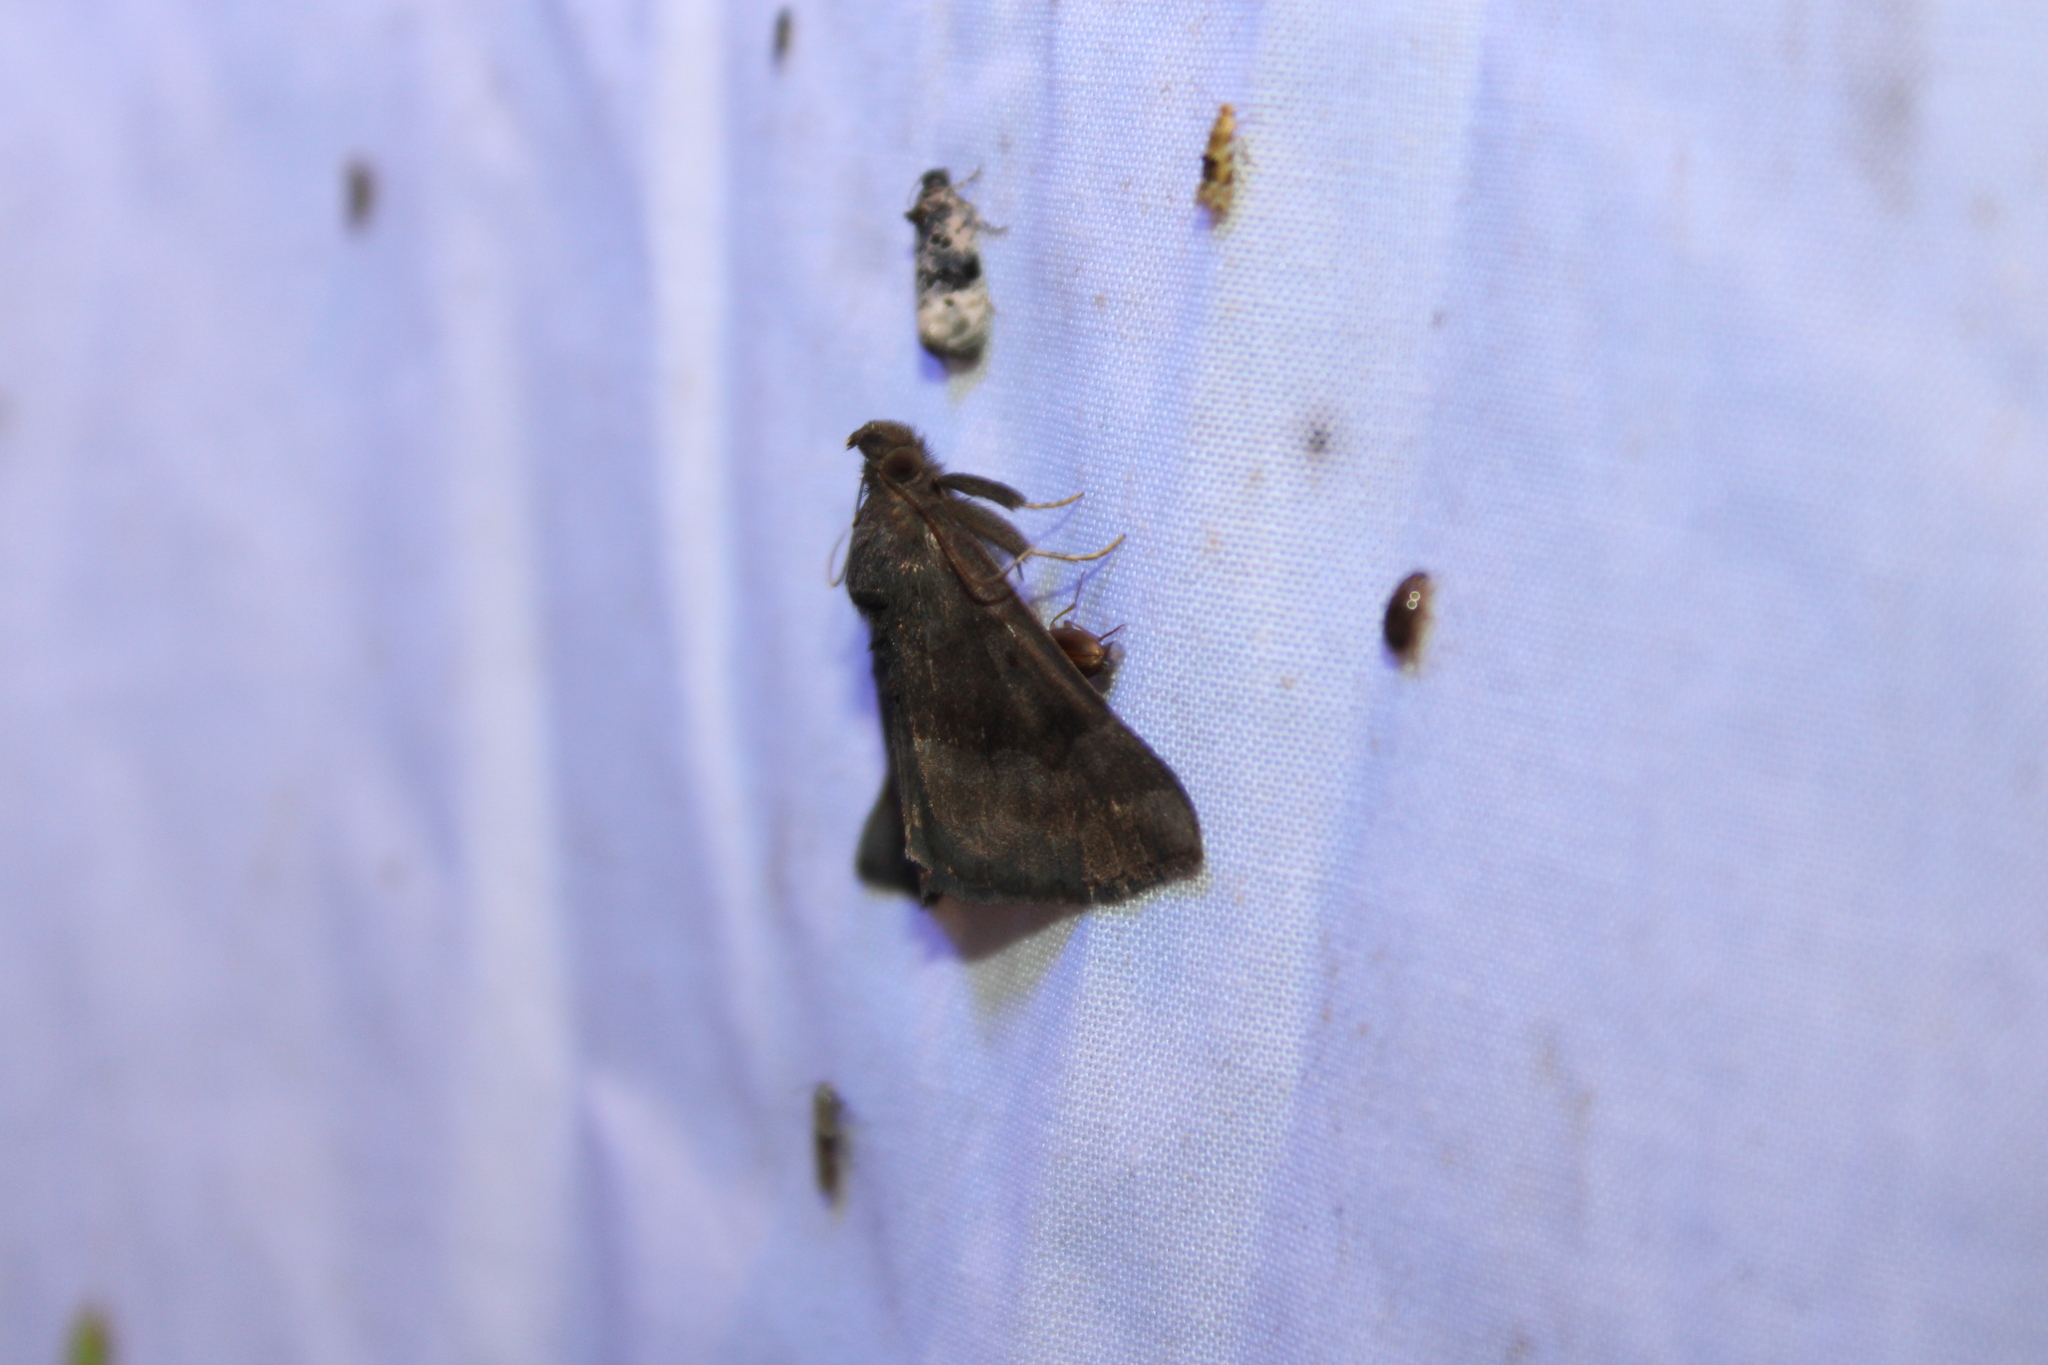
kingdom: Animalia
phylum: Arthropoda
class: Insecta
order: Lepidoptera
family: Erebidae
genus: Hypena
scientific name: Hypena madefactalis
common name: Gray-edged snout
